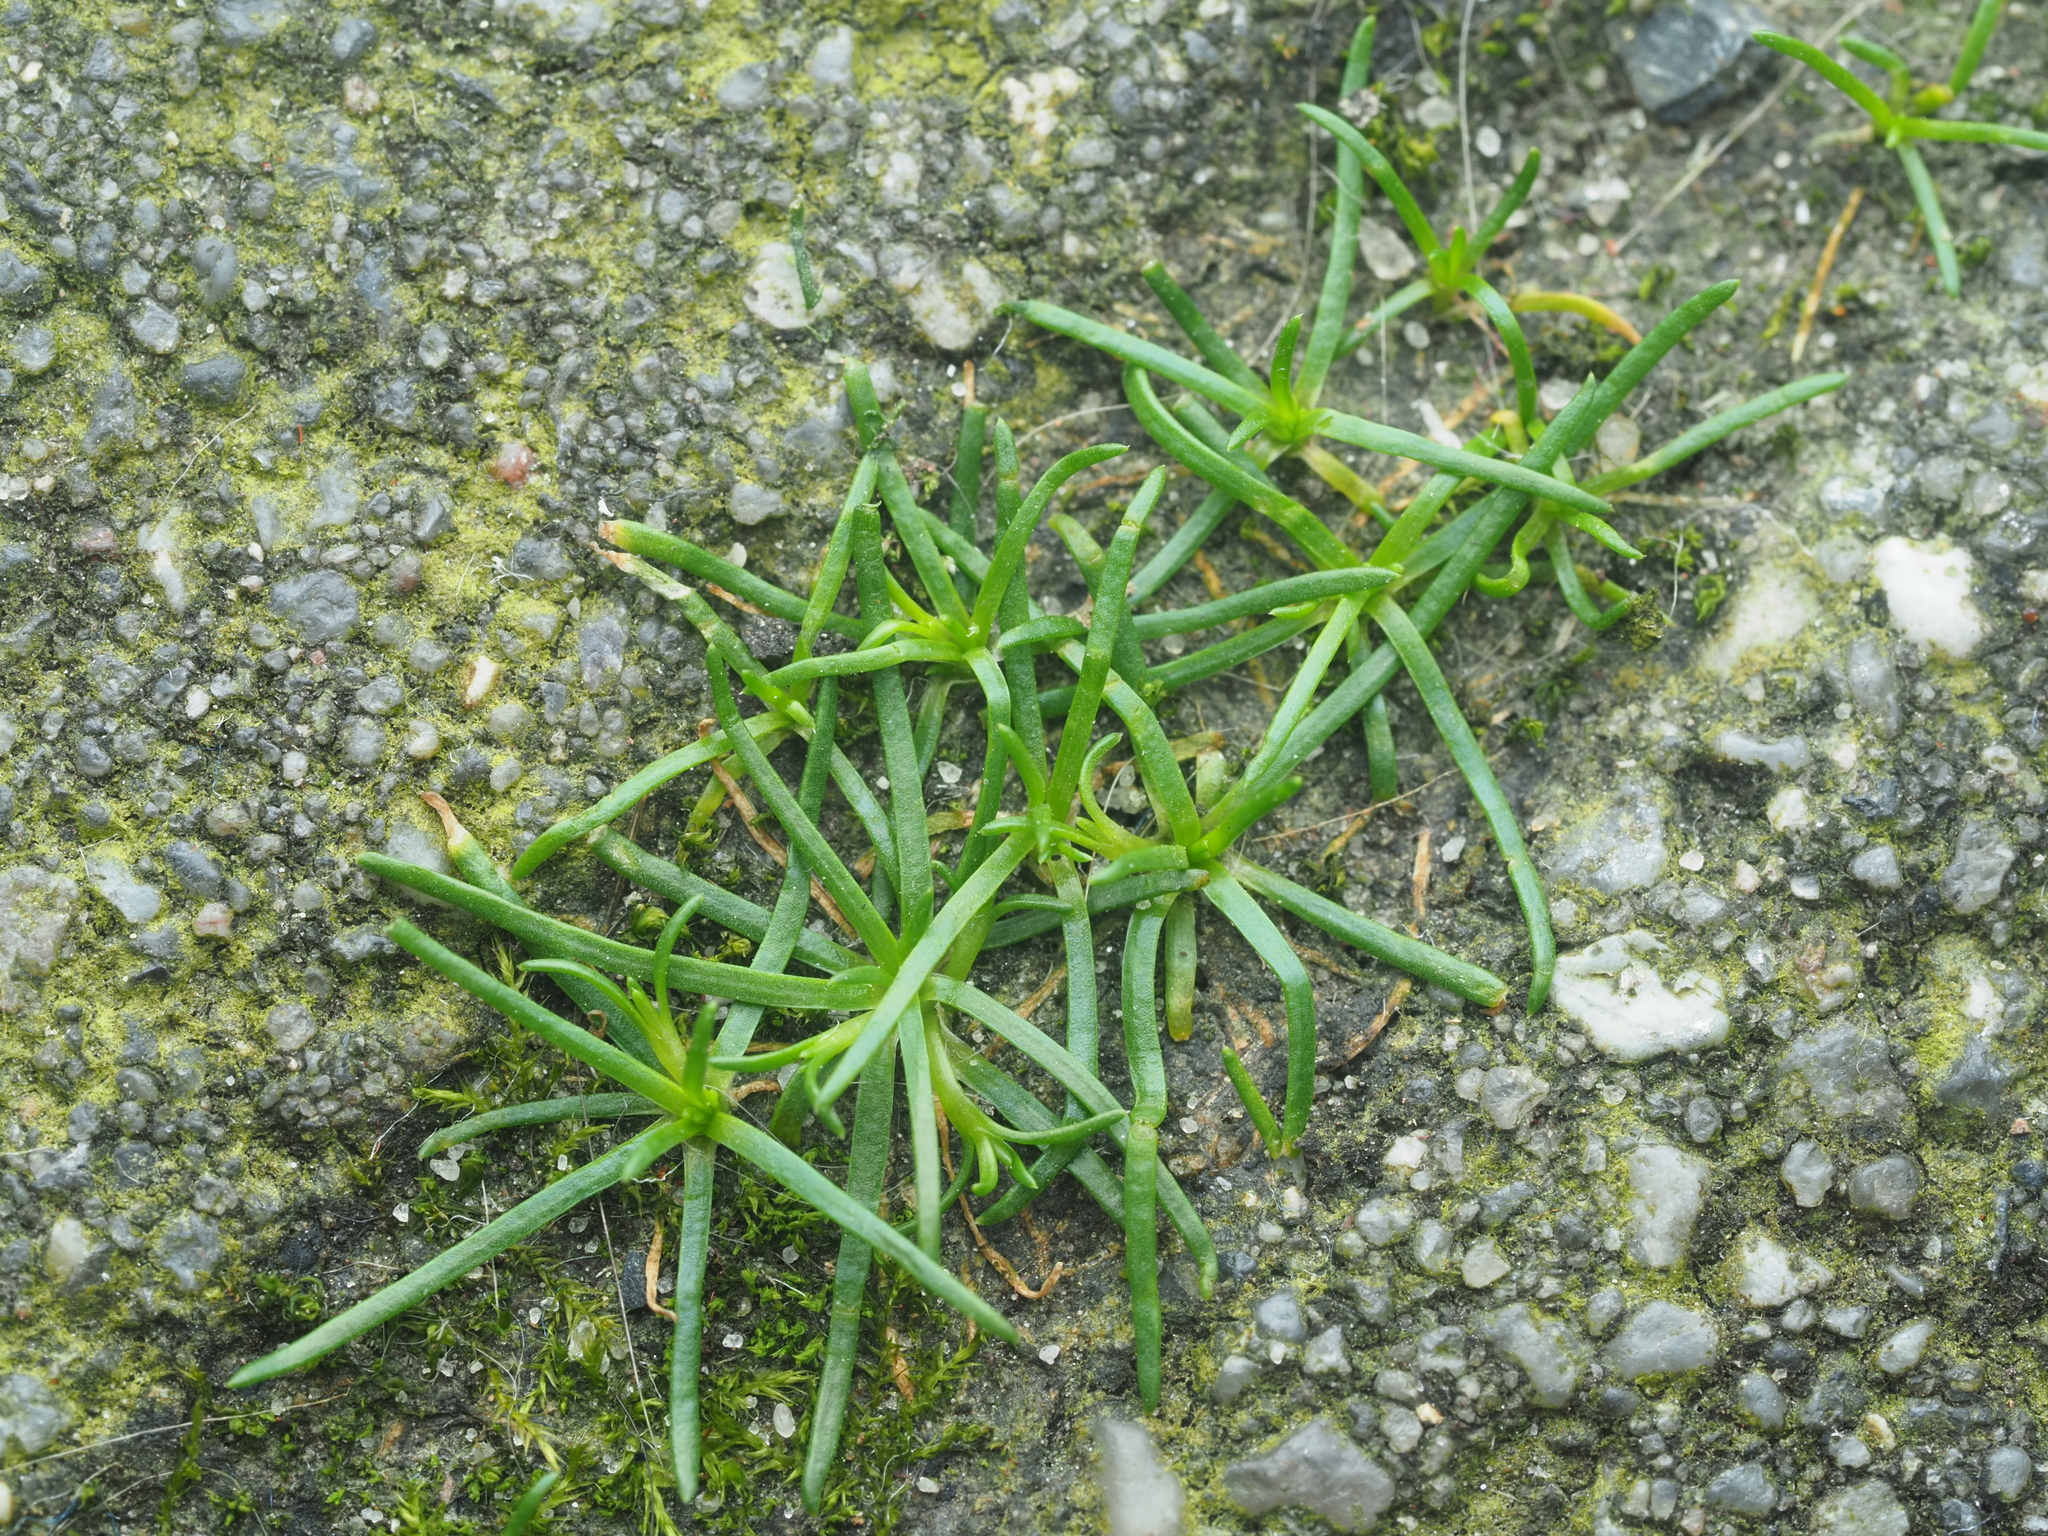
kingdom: Plantae
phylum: Tracheophyta
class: Magnoliopsida
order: Caryophyllales
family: Caryophyllaceae
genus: Sagina
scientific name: Sagina procumbens
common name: Procumbent pearlwort
